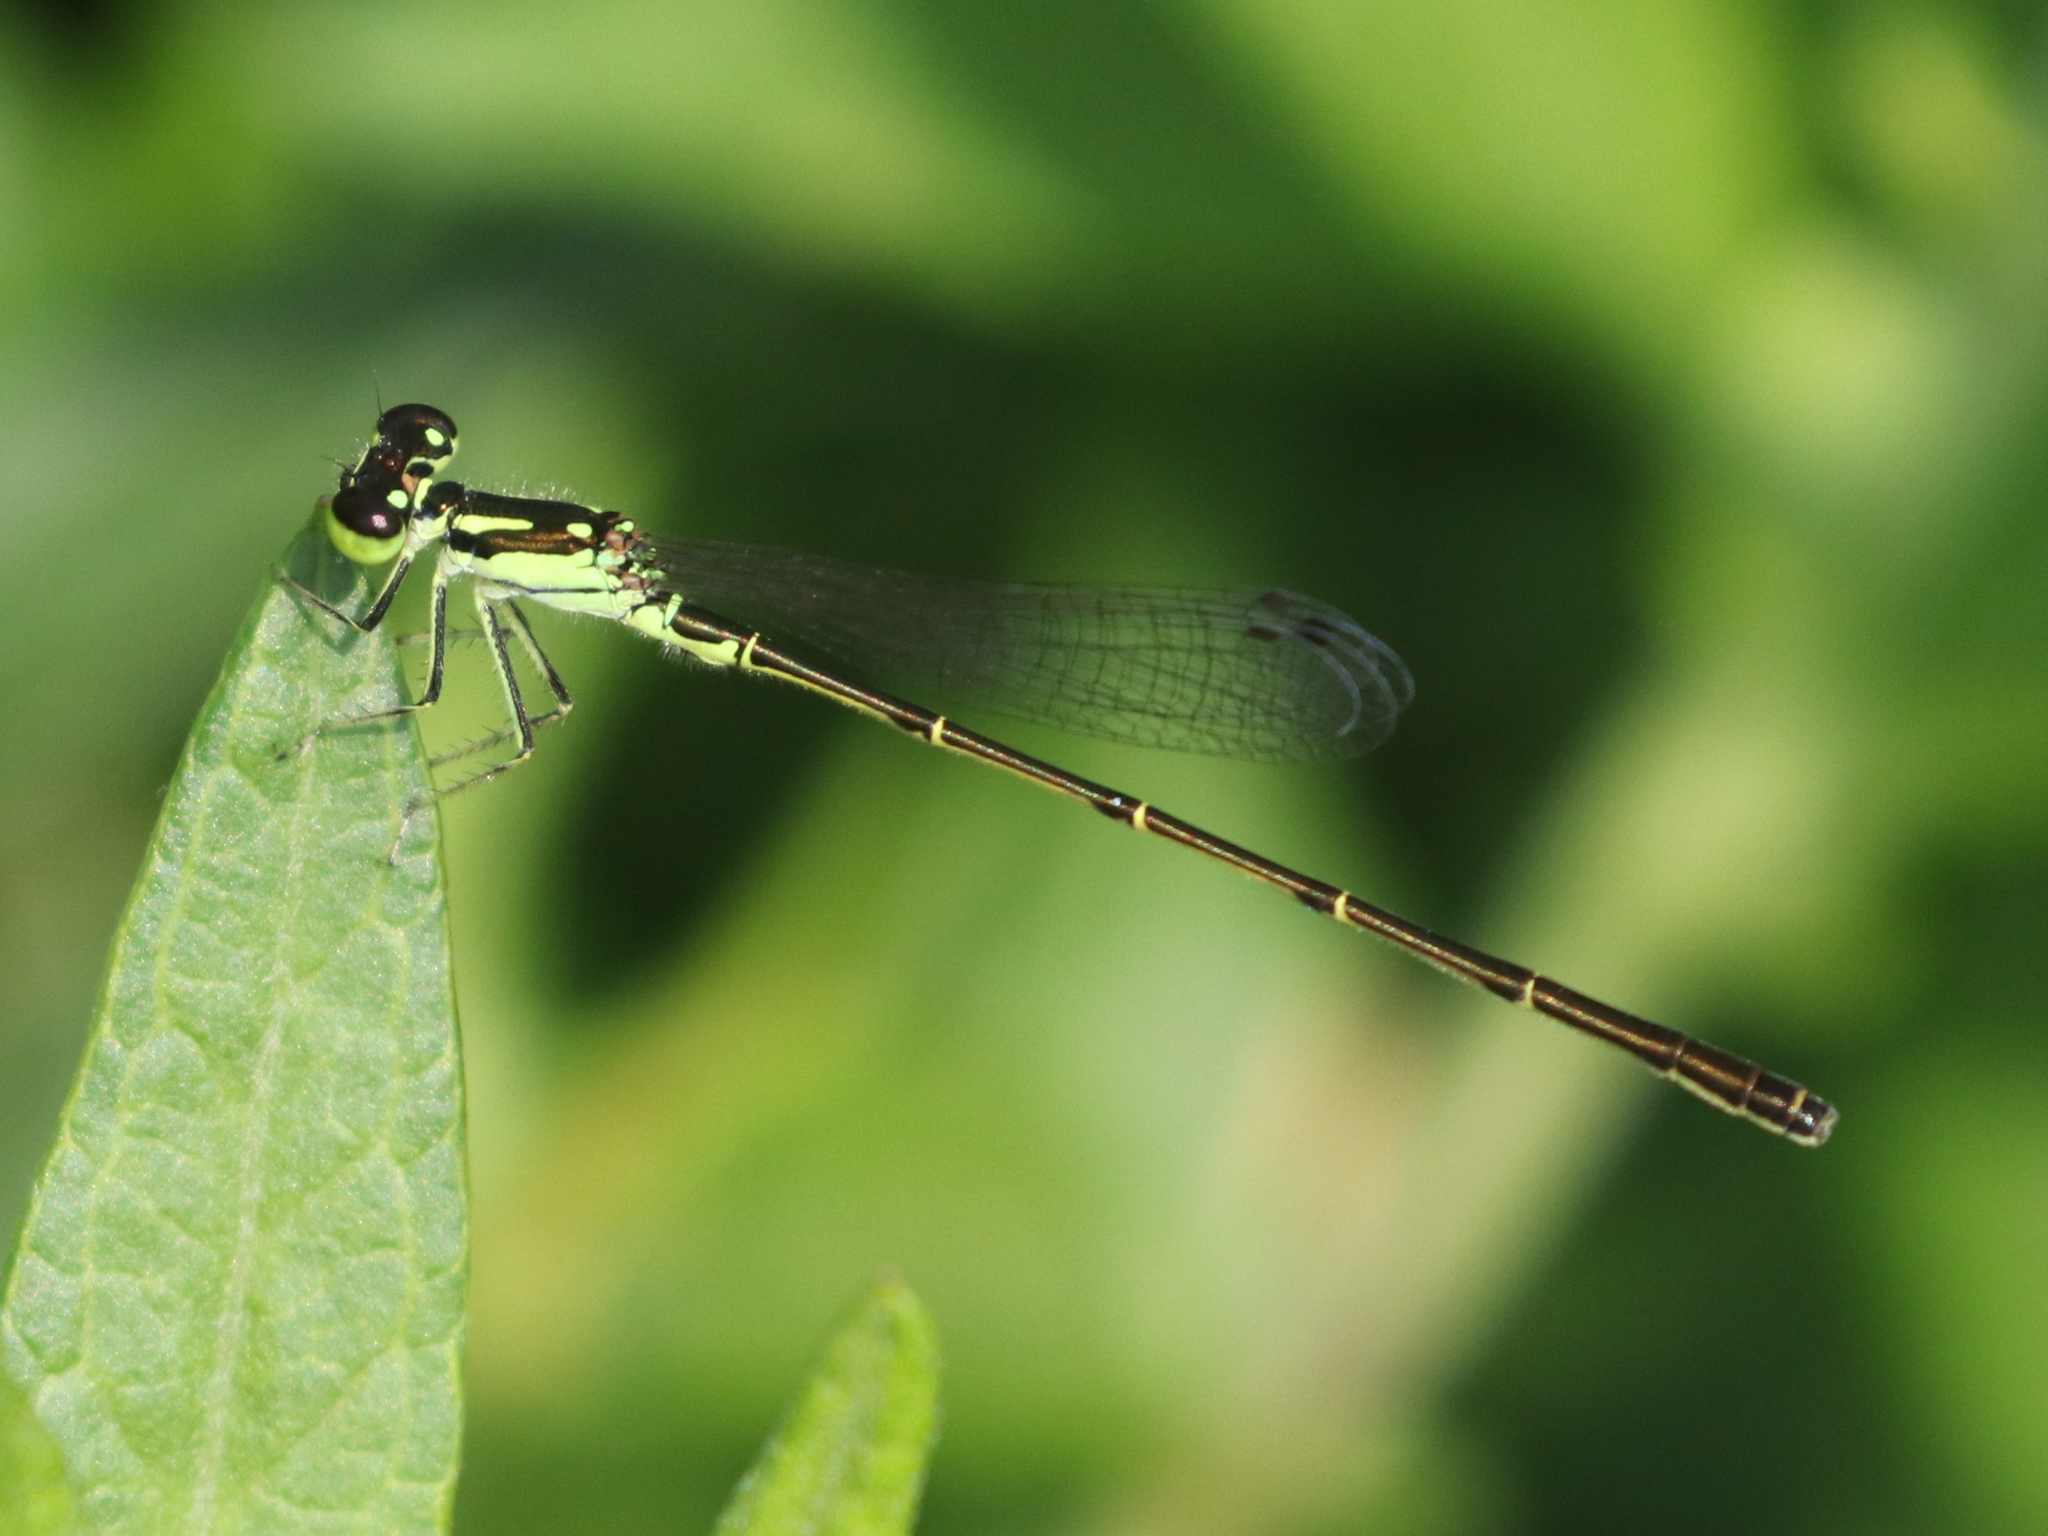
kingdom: Animalia
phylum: Arthropoda
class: Insecta
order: Odonata
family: Coenagrionidae
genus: Ischnura
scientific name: Ischnura posita
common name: Fragile forktail
